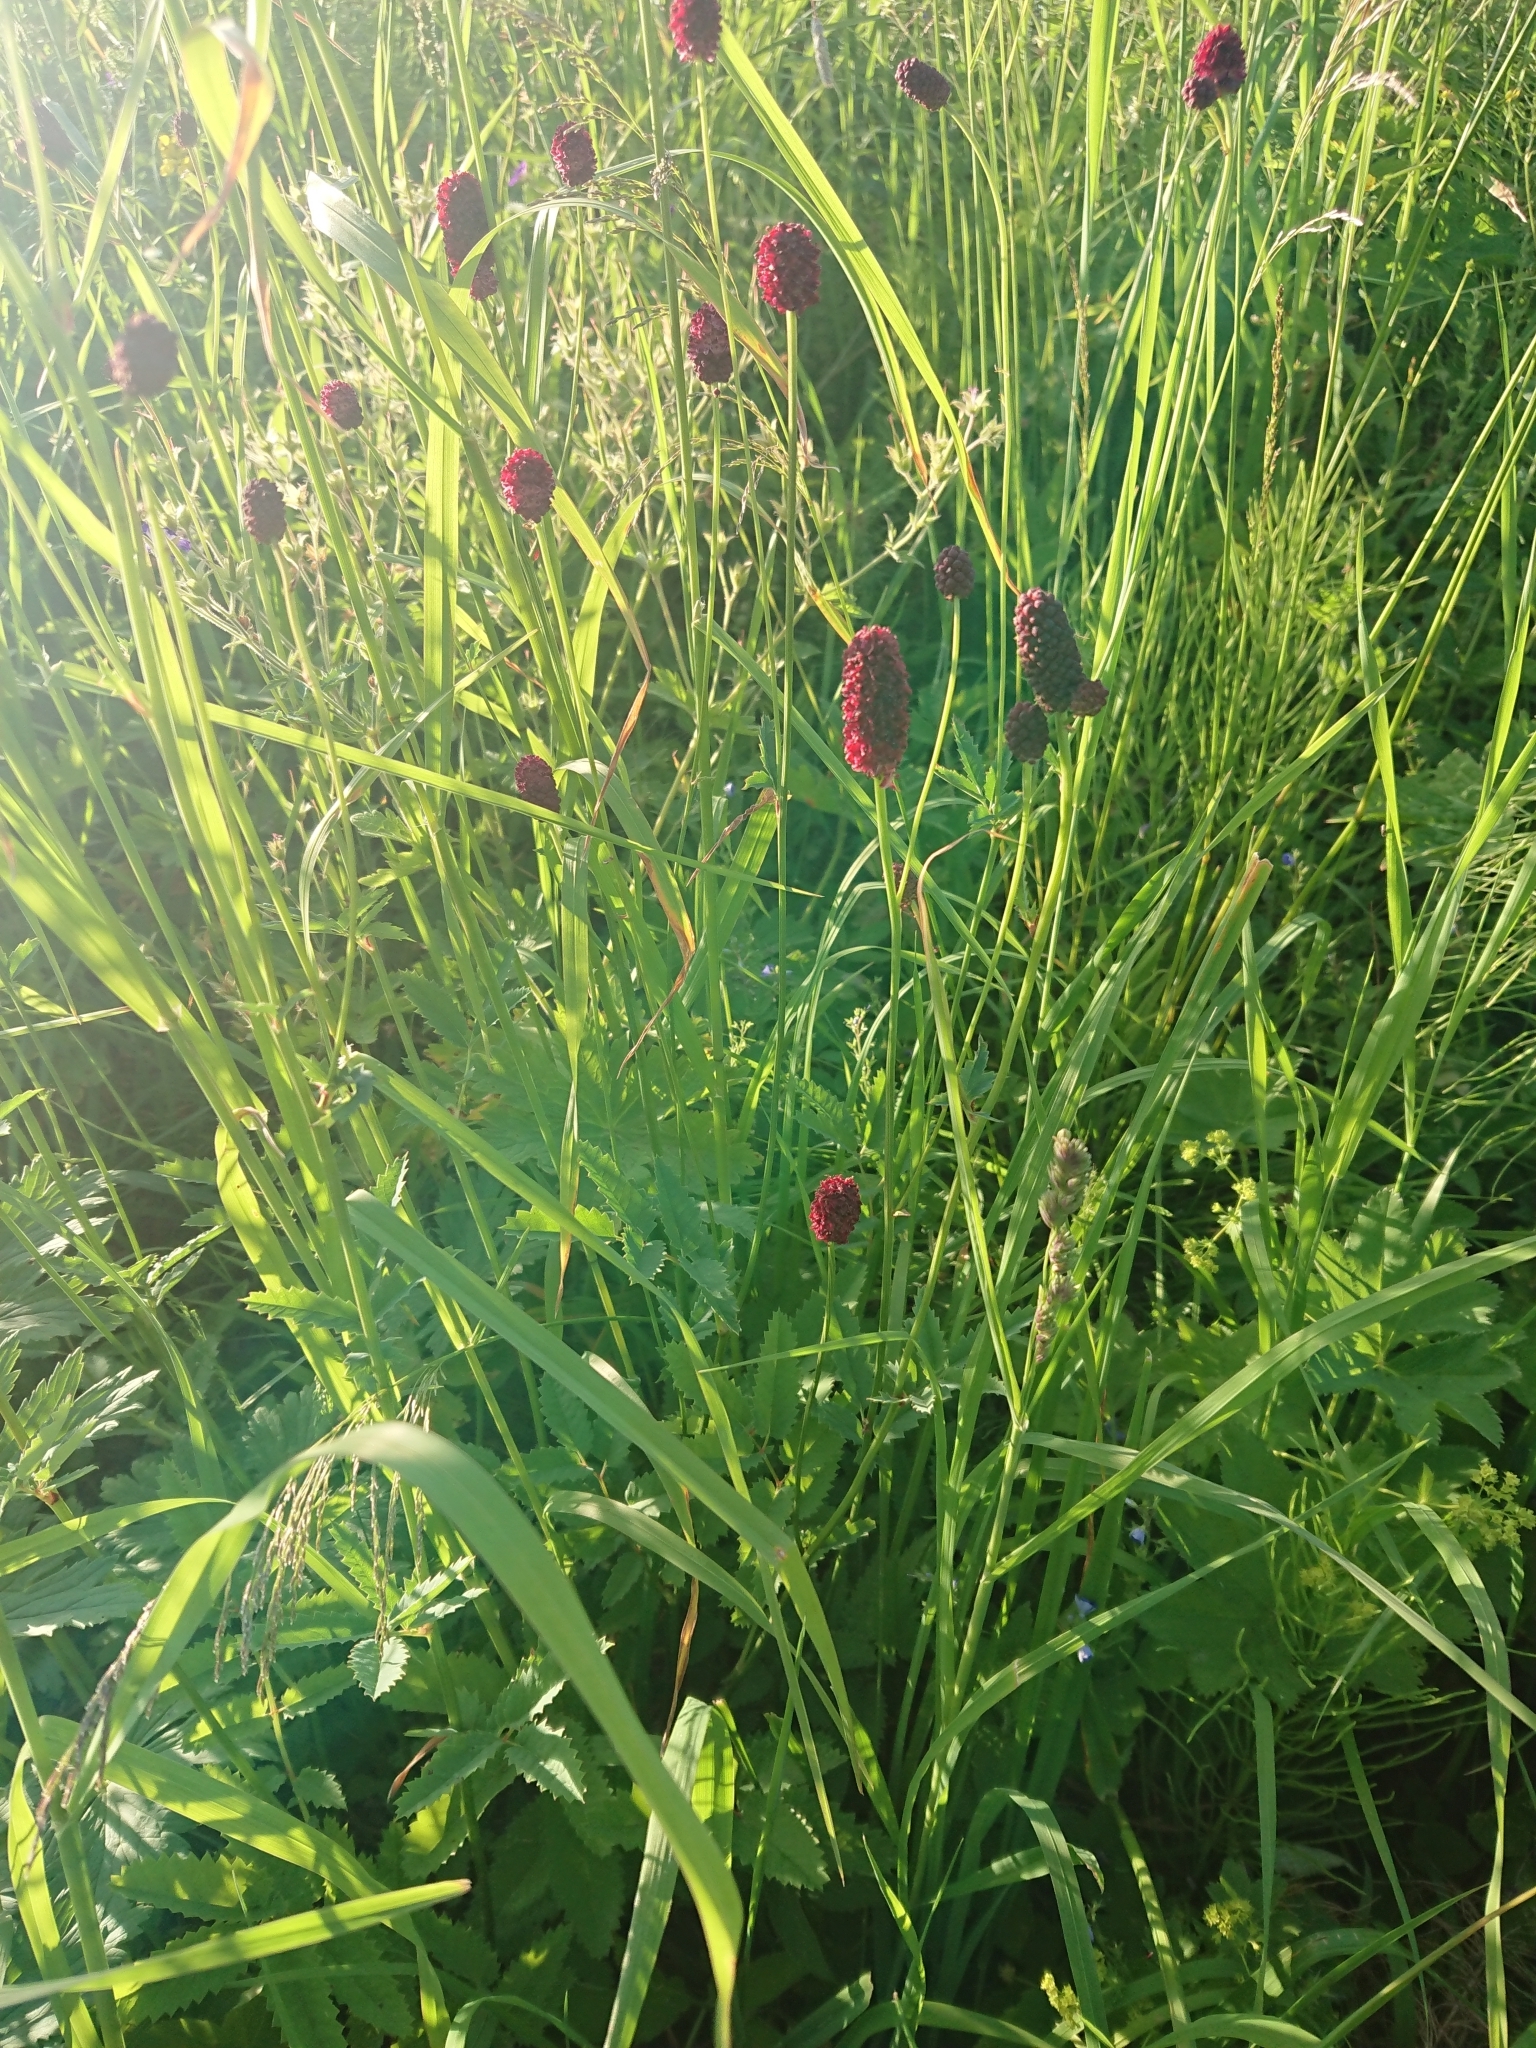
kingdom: Plantae
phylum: Tracheophyta
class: Magnoliopsida
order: Rosales
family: Rosaceae
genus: Sanguisorba
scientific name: Sanguisorba officinalis
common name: Great burnet
